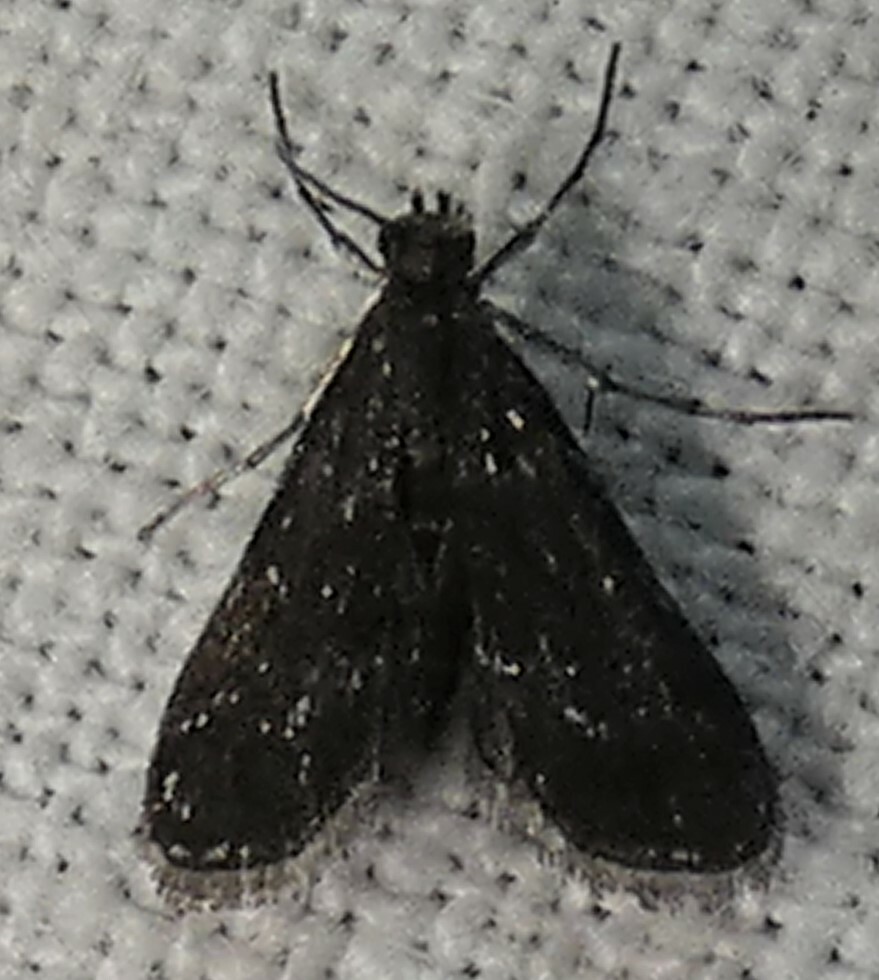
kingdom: Animalia
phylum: Arthropoda
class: Insecta
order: Lepidoptera
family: Crambidae
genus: Elophila
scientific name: Elophila tinealis
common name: Black duckweed moth
